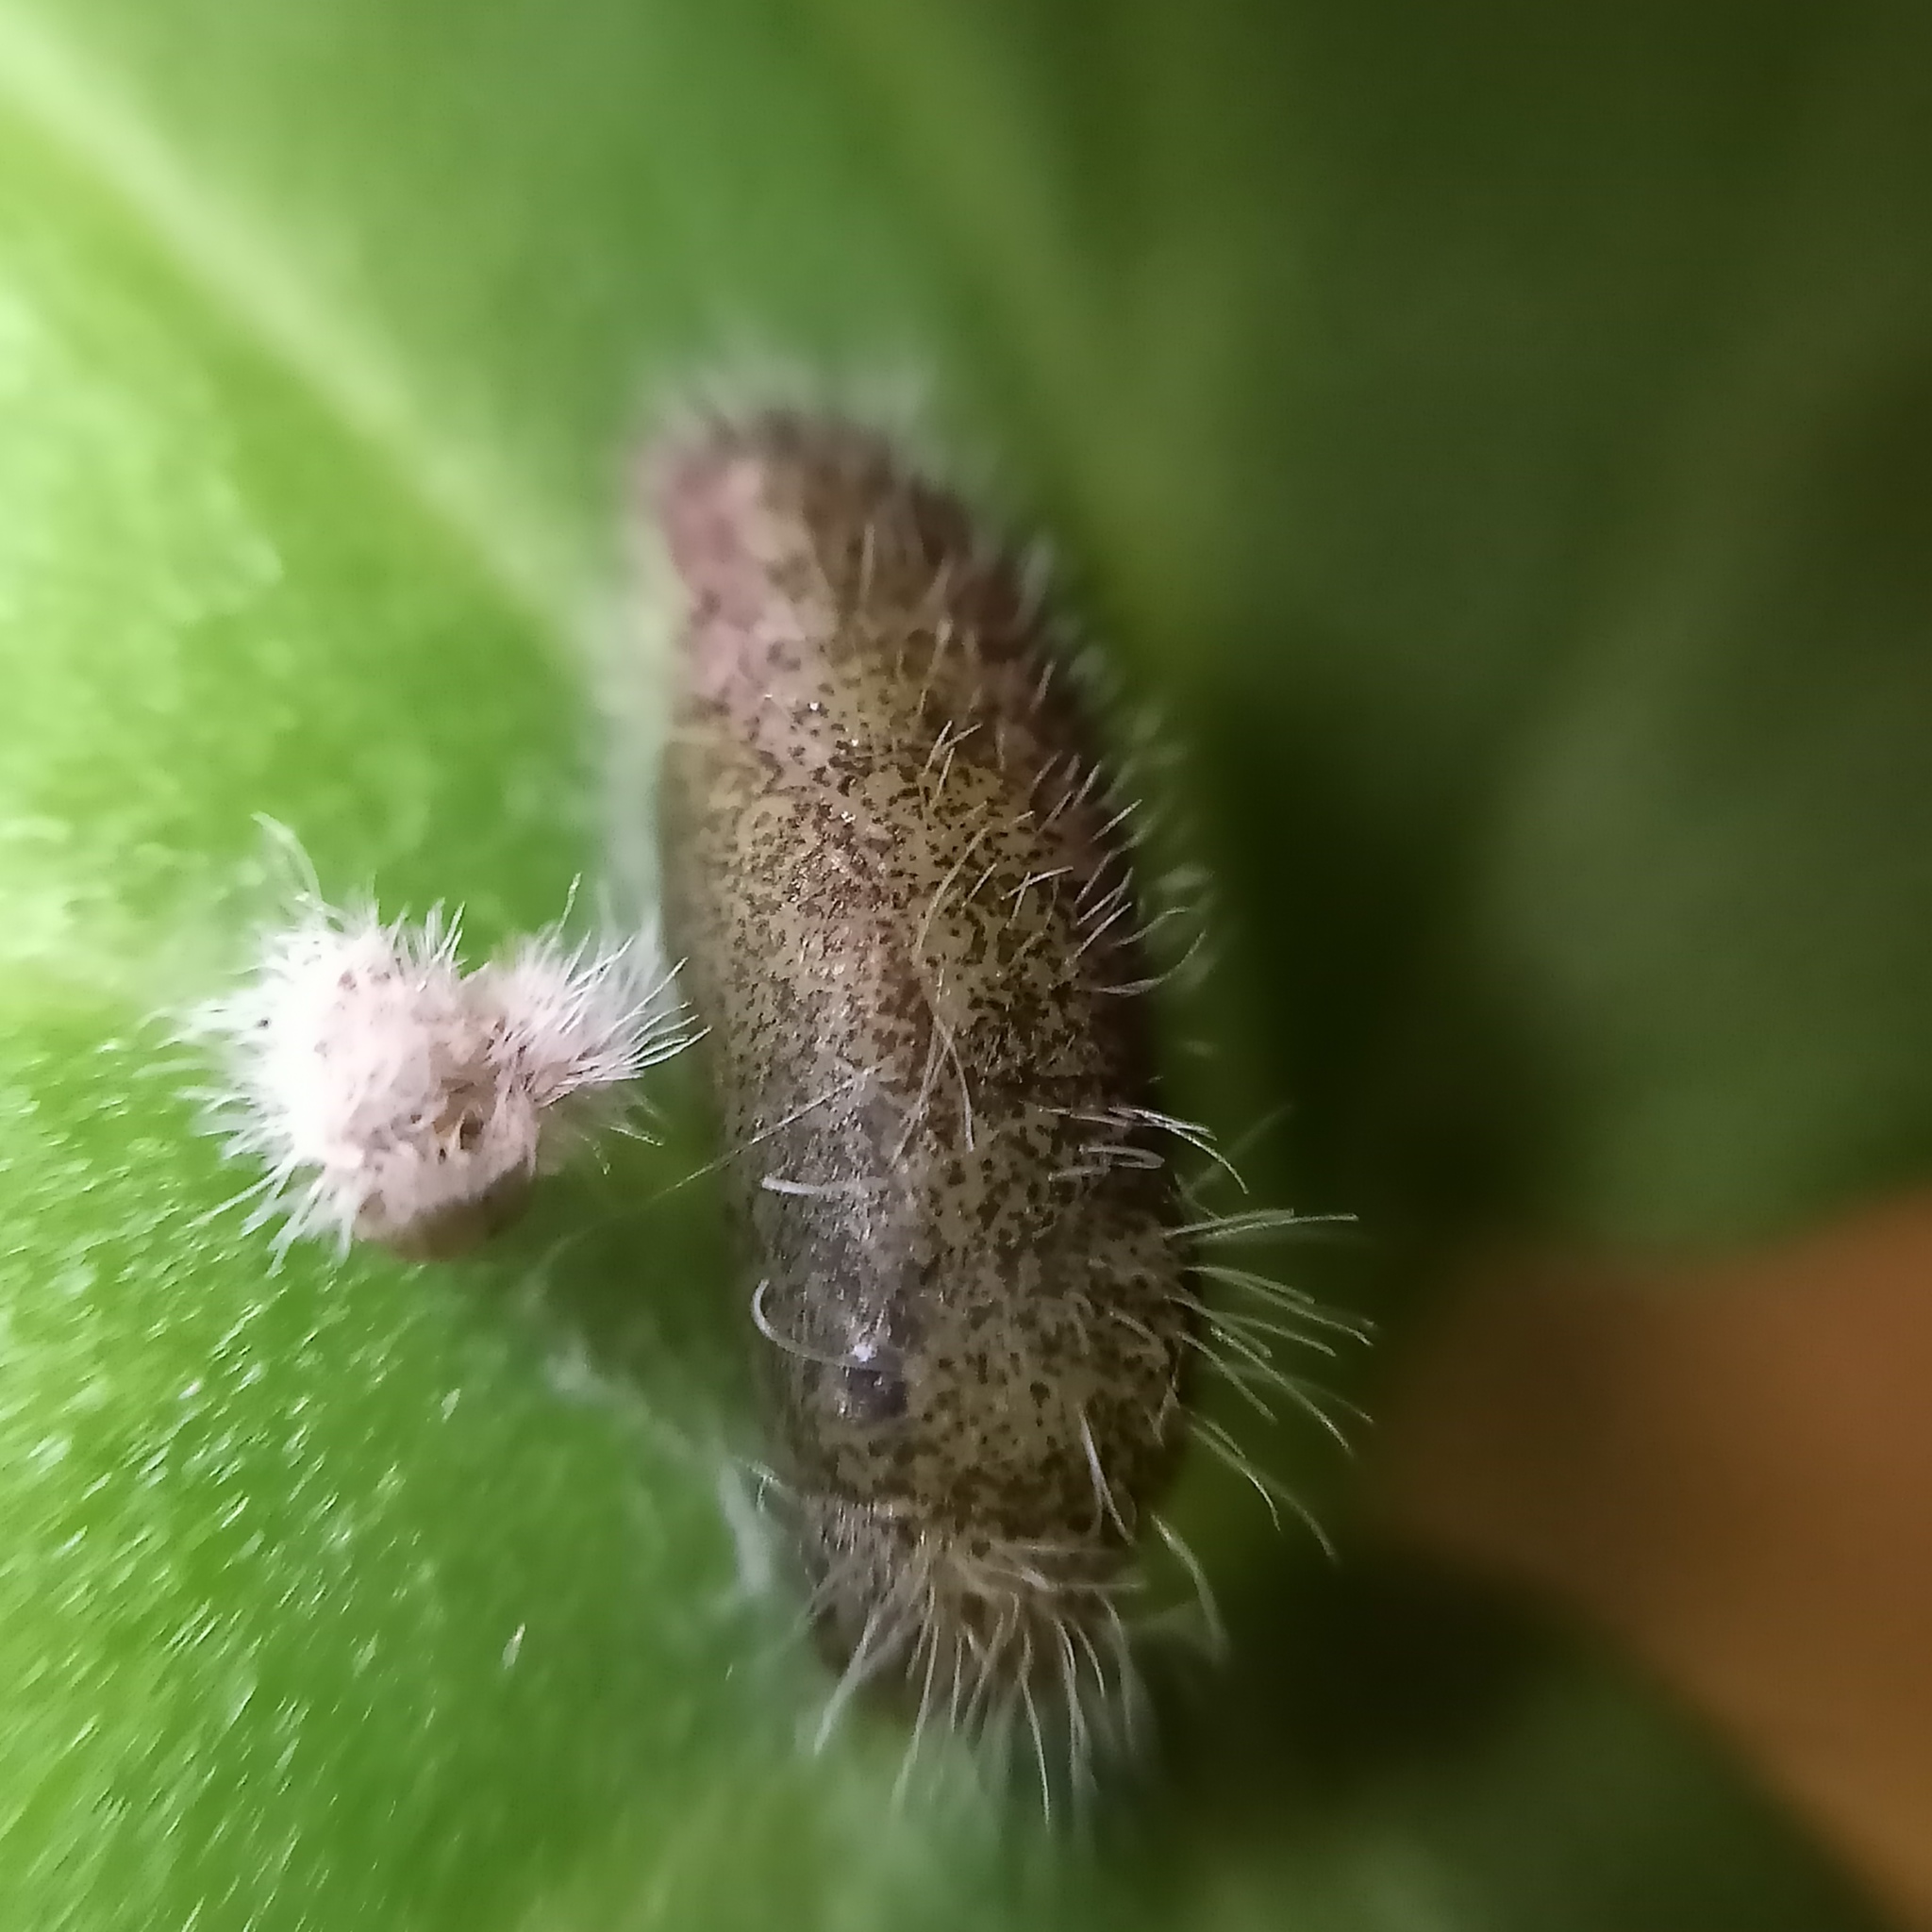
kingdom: Animalia
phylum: Arthropoda
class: Insecta
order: Lepidoptera
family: Lycaenidae
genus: Cacyreus
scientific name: Cacyreus marshalli
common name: Geranium bronze
